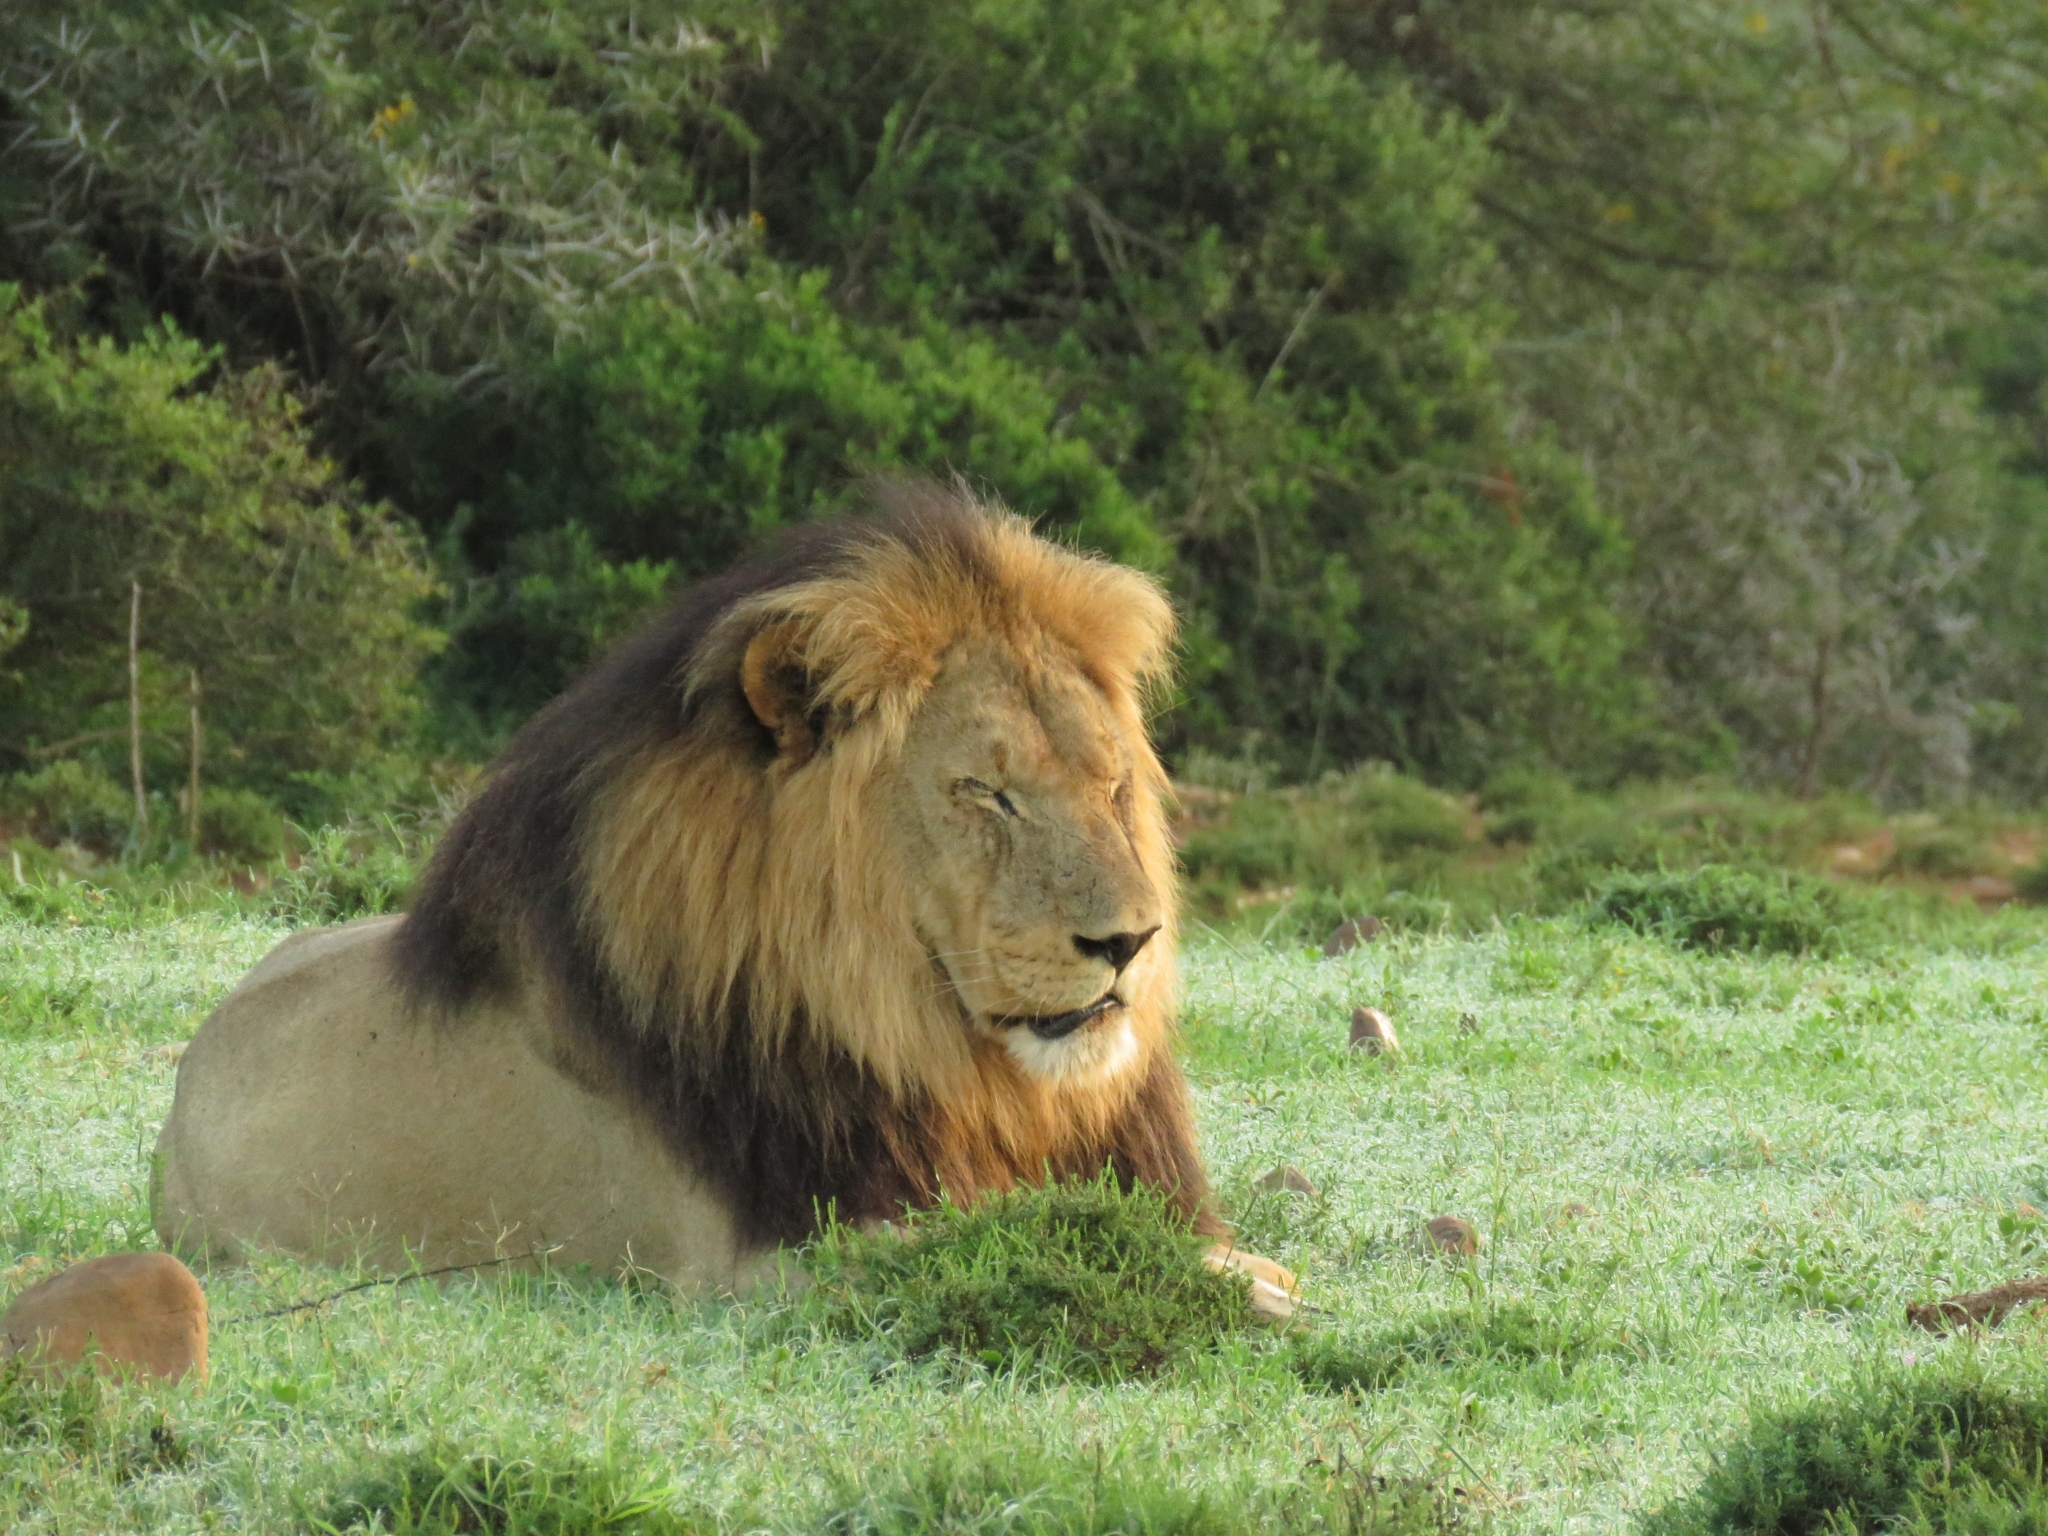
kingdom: Animalia
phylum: Chordata
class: Mammalia
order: Carnivora
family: Felidae
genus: Panthera
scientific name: Panthera leo
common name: Lion
